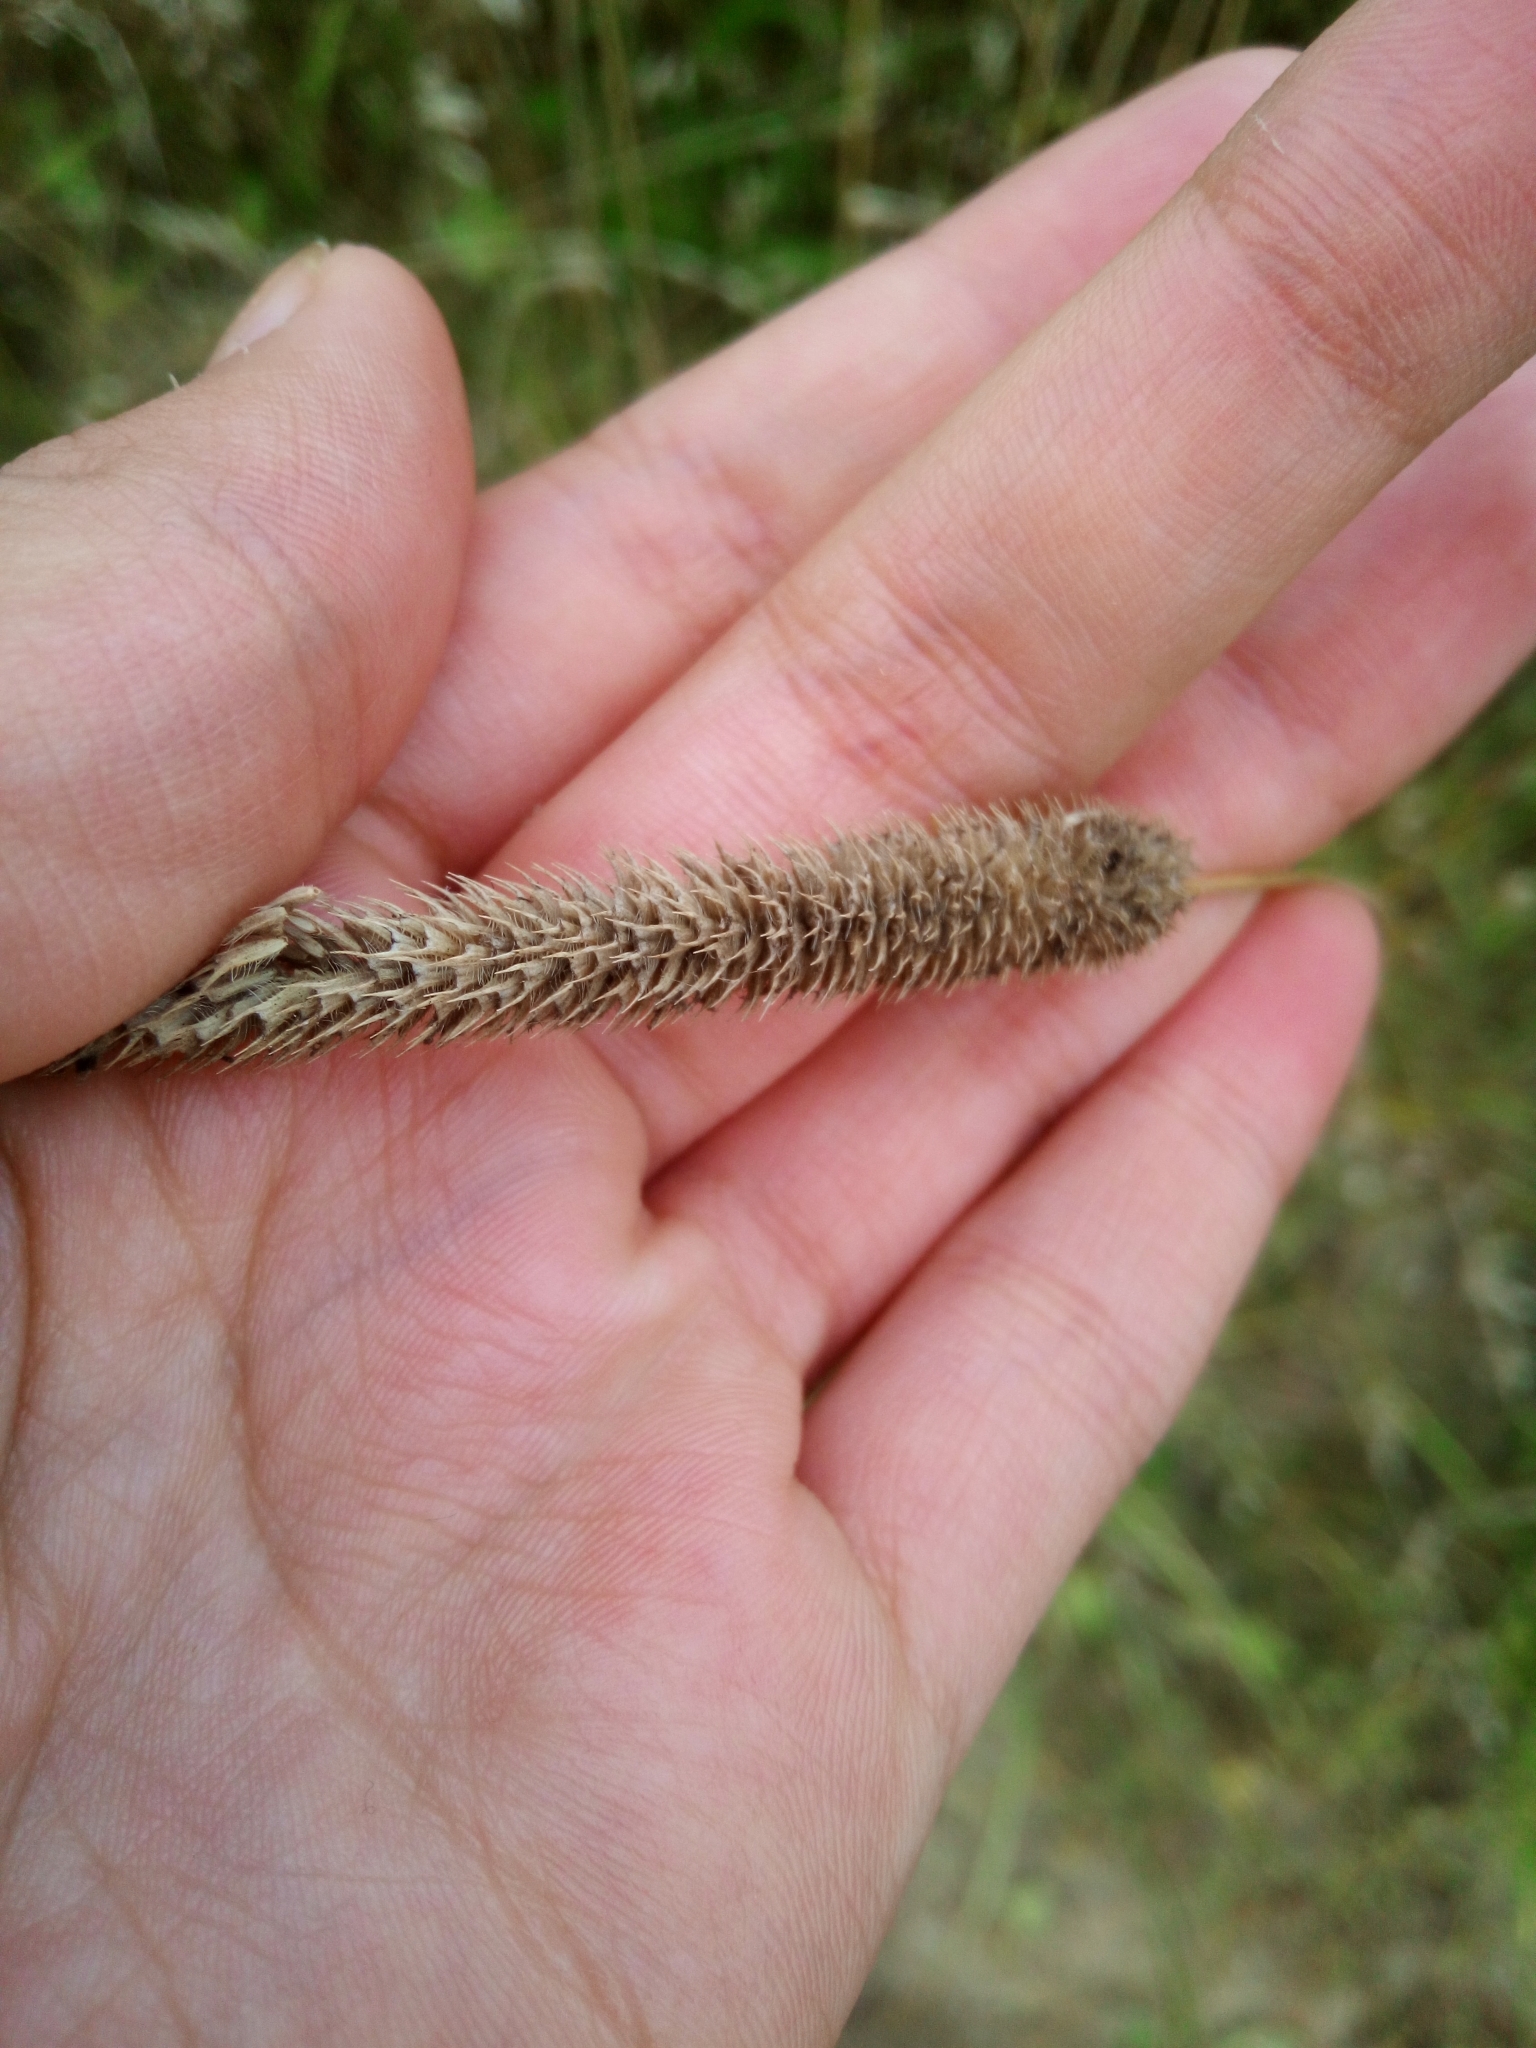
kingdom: Plantae
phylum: Tracheophyta
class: Liliopsida
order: Poales
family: Poaceae
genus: Phleum
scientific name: Phleum pratense
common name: Timothy grass
